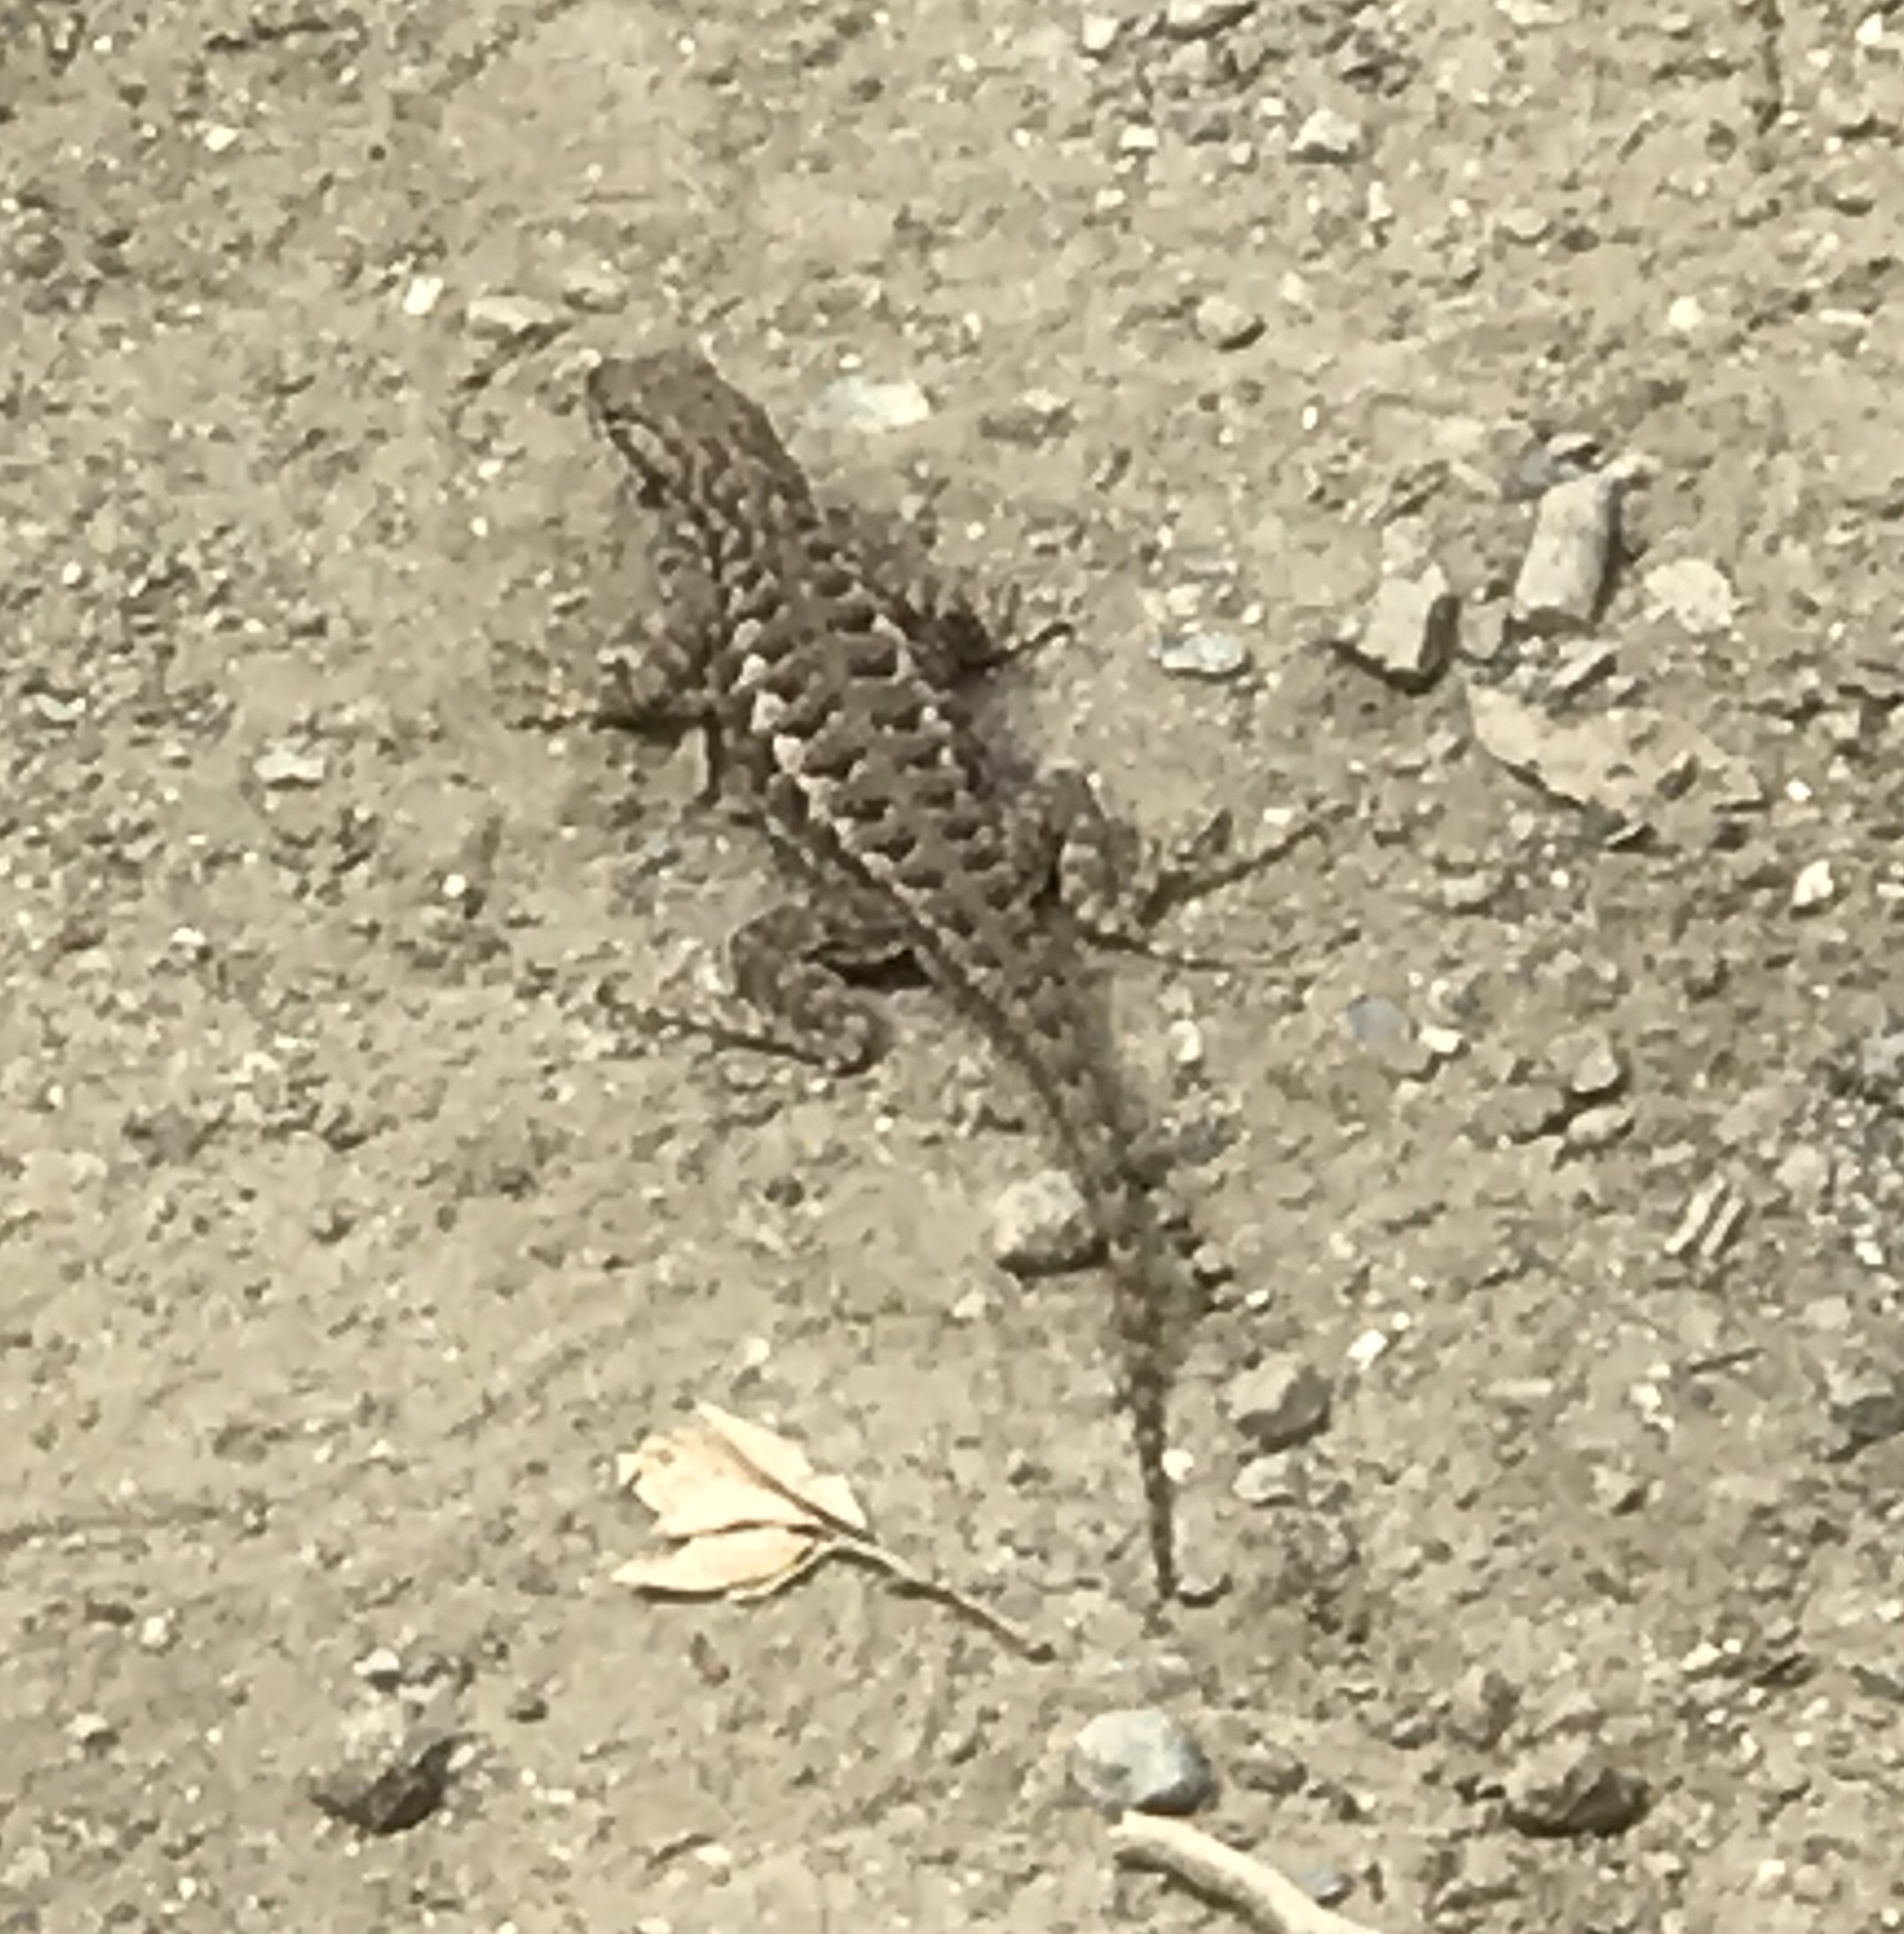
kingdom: Animalia
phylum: Chordata
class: Squamata
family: Phrynosomatidae
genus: Sceloporus
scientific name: Sceloporus occidentalis
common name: Western fence lizard
